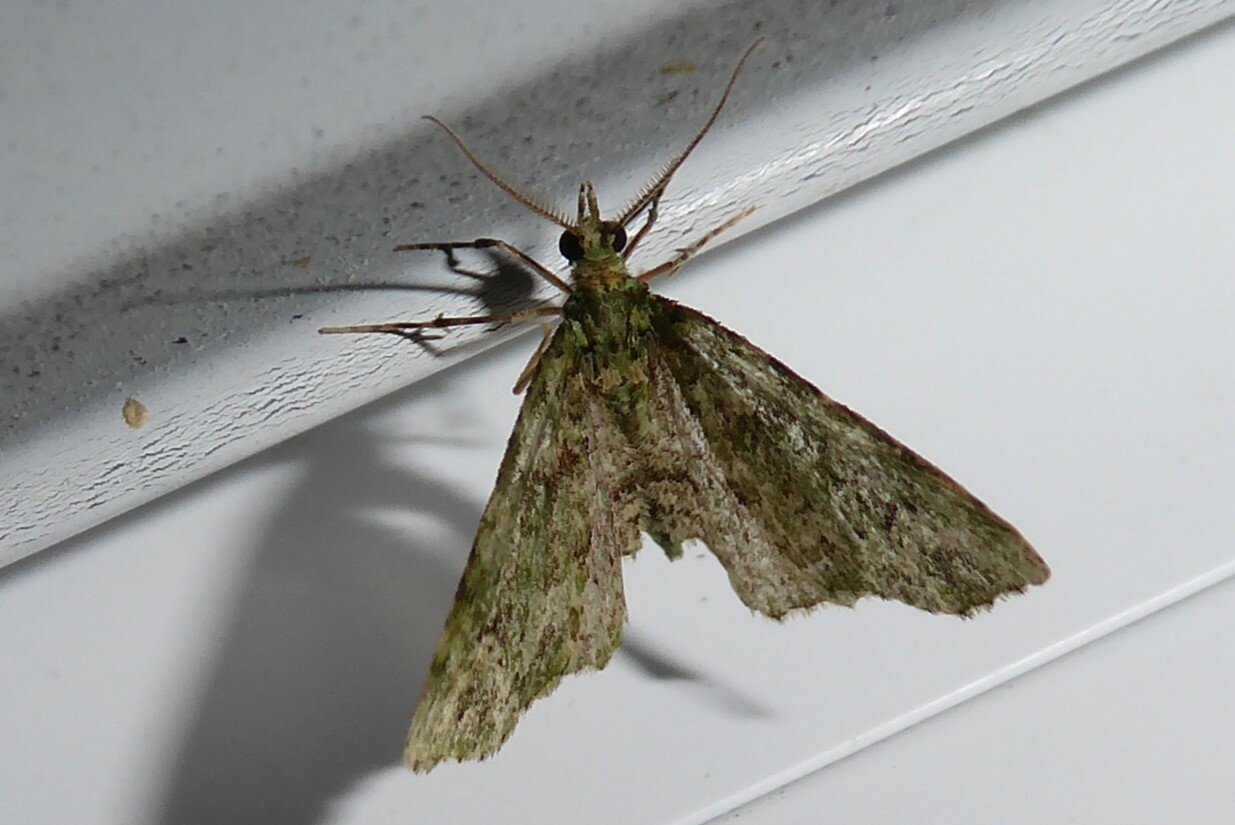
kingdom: Animalia
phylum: Arthropoda
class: Insecta
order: Lepidoptera
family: Geometridae
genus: Pasiphila
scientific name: Pasiphila muscosata
